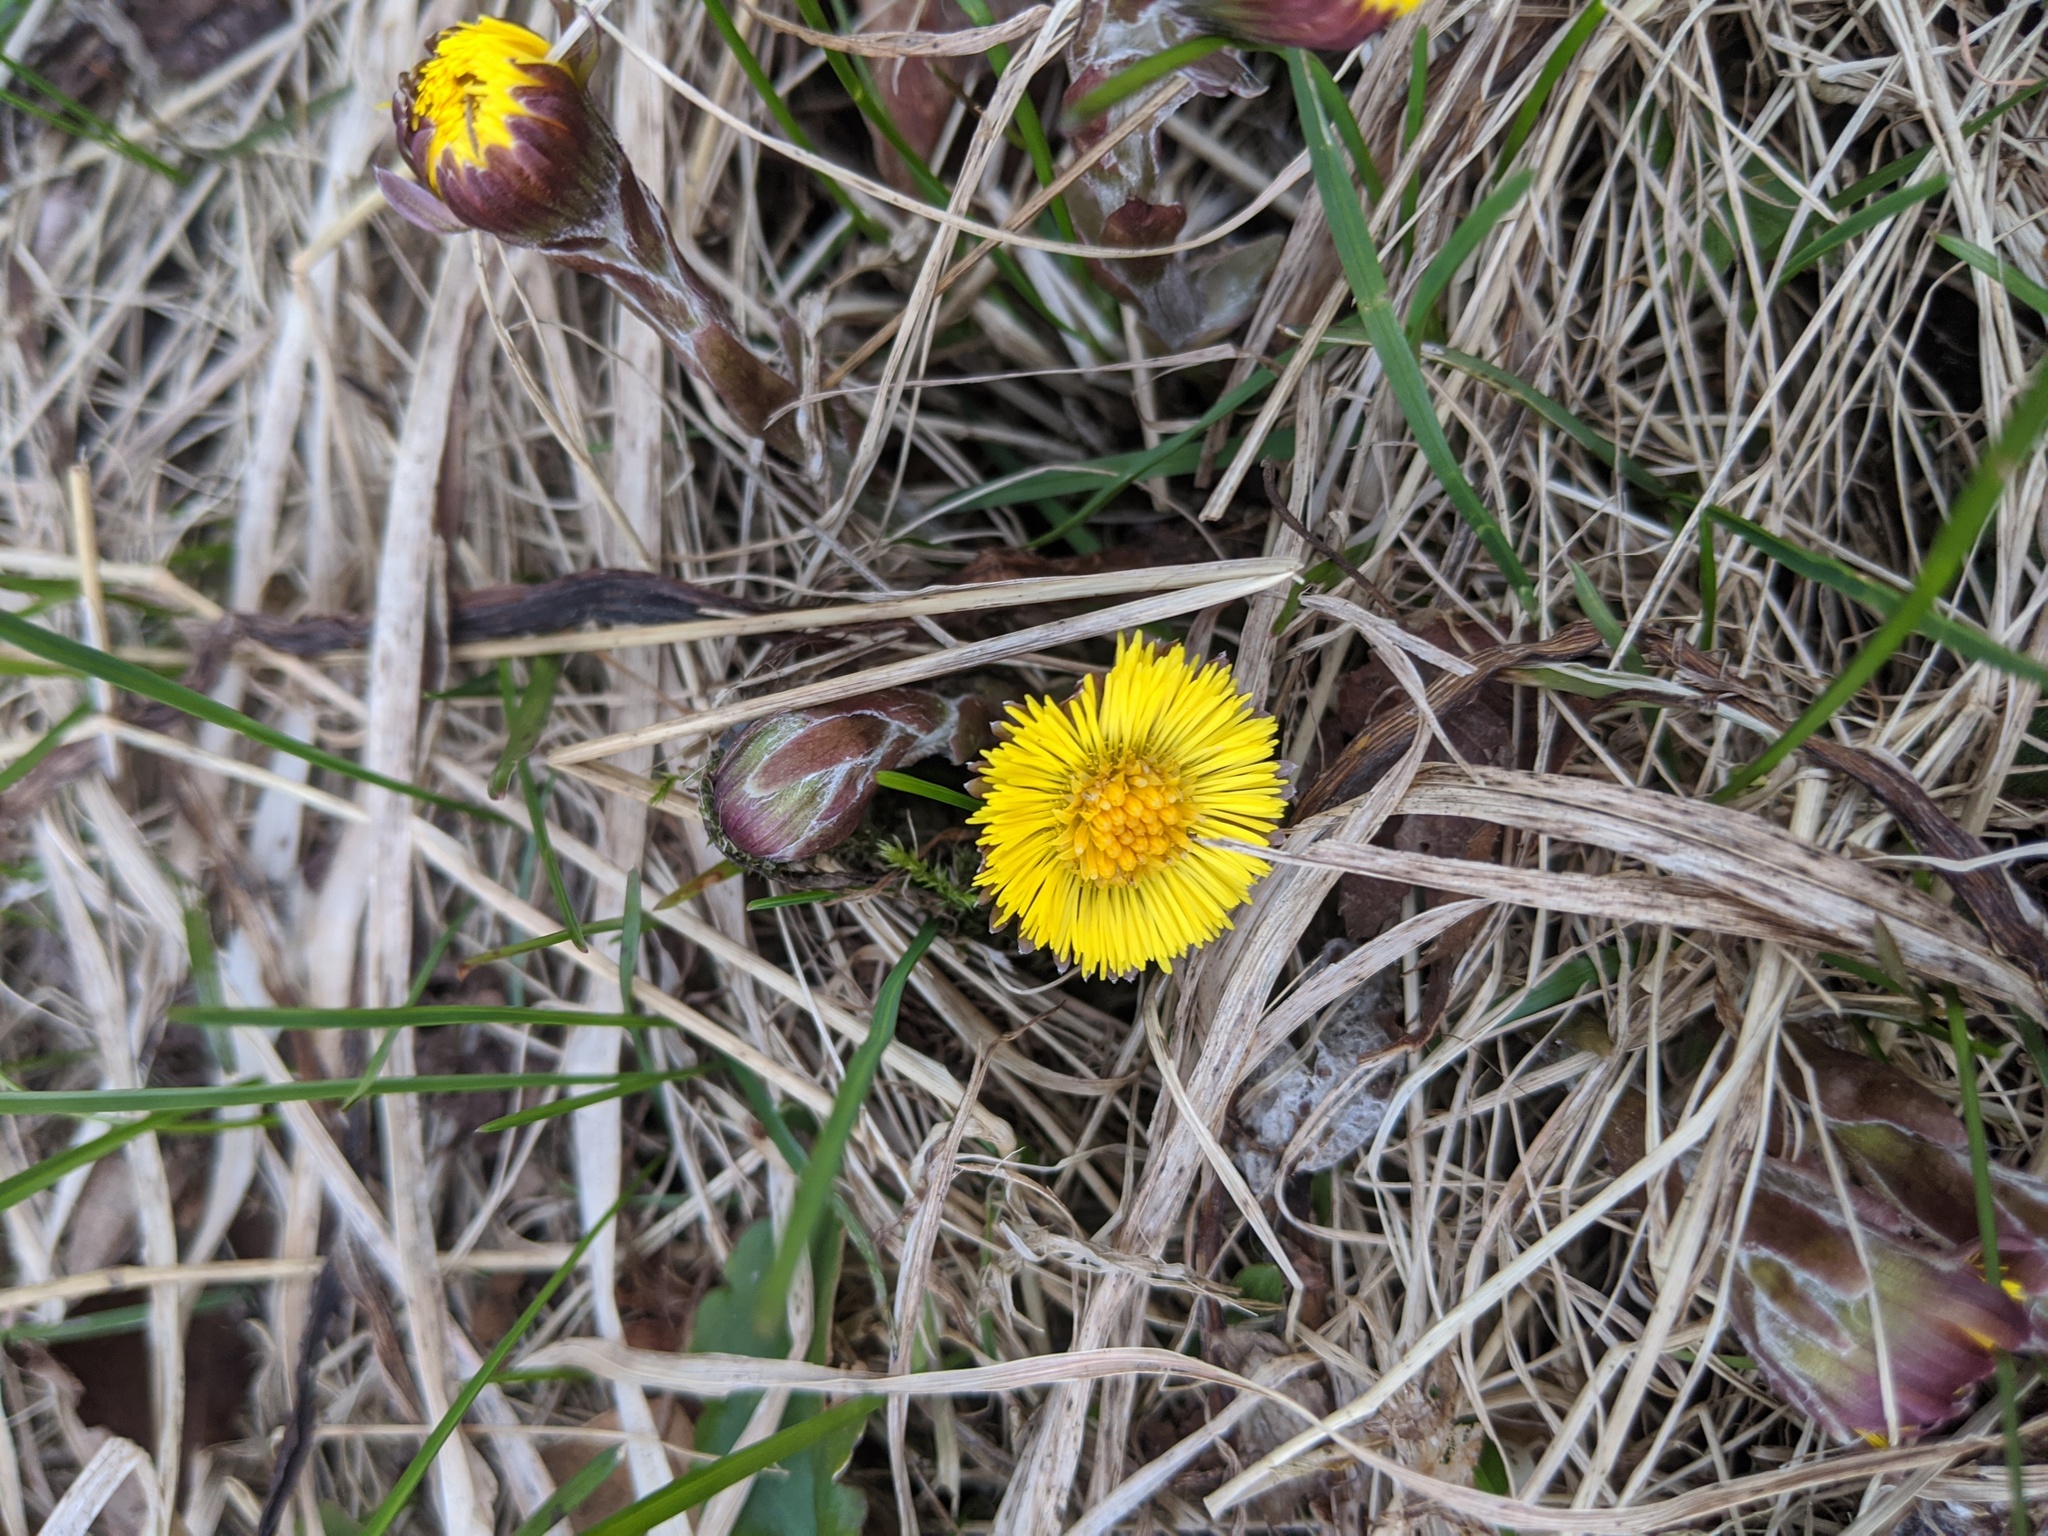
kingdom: Plantae
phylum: Tracheophyta
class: Magnoliopsida
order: Asterales
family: Asteraceae
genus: Tussilago
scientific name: Tussilago farfara
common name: Coltsfoot
